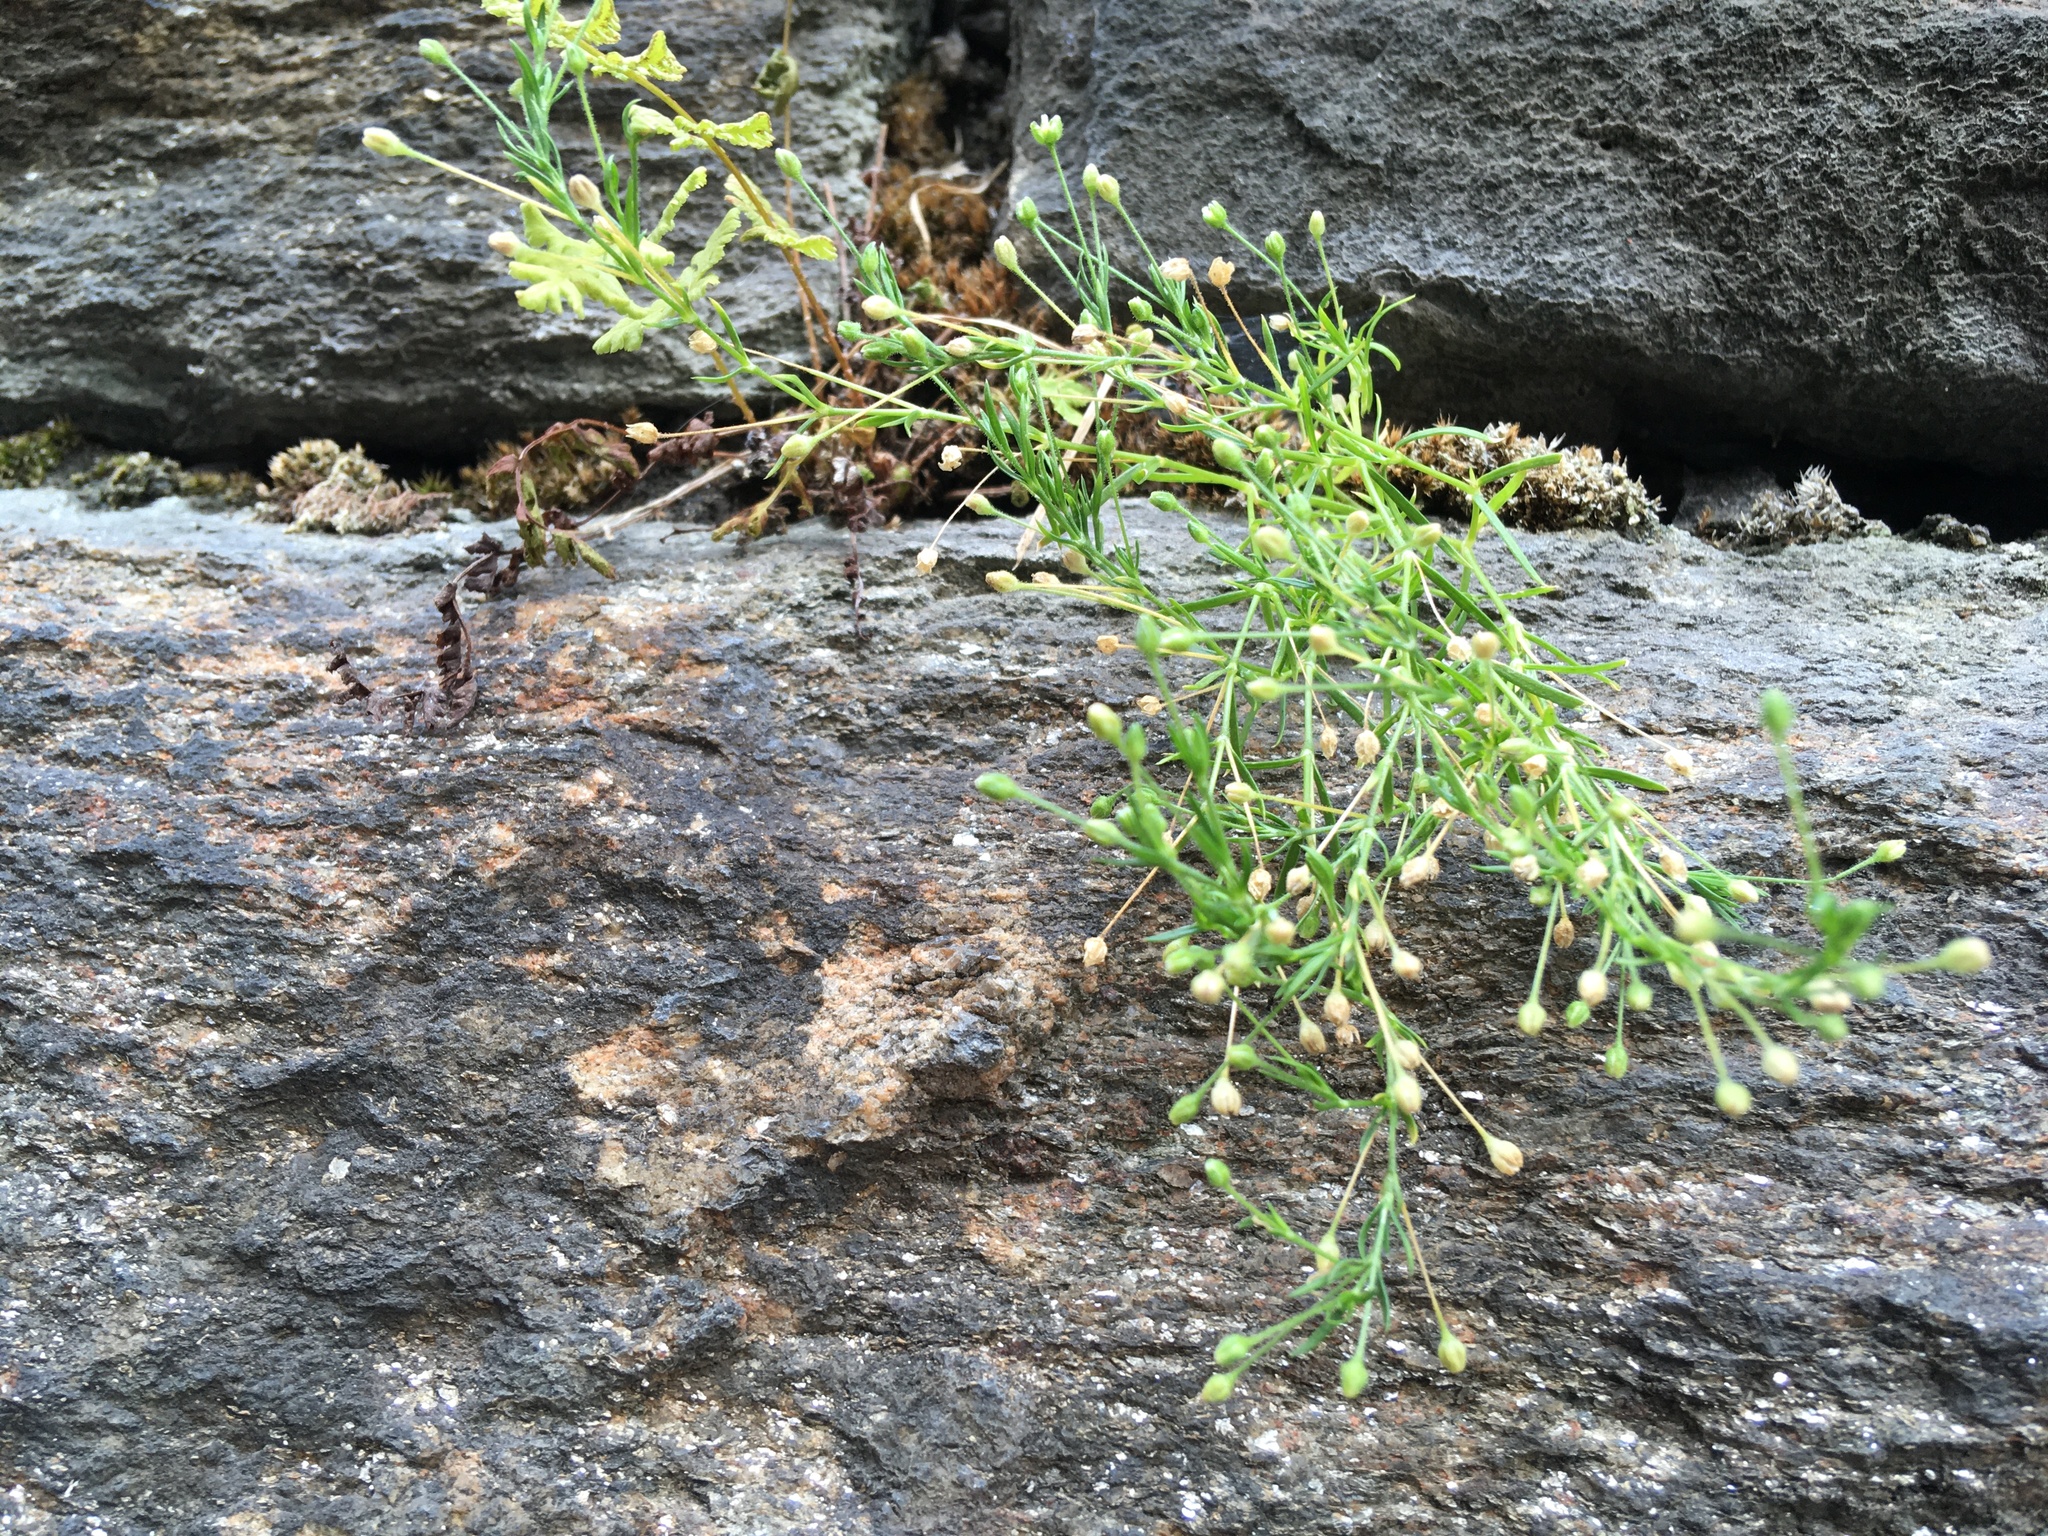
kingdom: Plantae
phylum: Tracheophyta
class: Magnoliopsida
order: Caryophyllales
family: Caryophyllaceae
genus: Sagina
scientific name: Sagina japonica
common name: Japanese pearlwort
